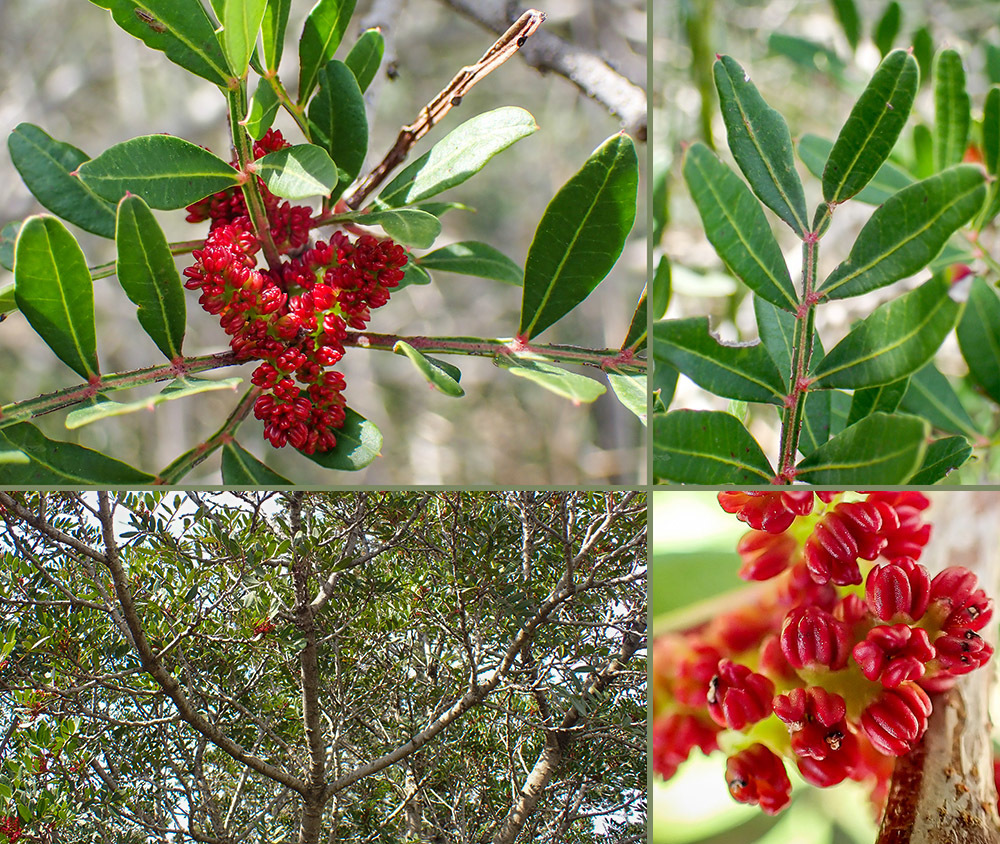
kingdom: Plantae
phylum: Tracheophyta
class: Magnoliopsida
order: Sapindales
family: Anacardiaceae
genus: Pistacia
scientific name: Pistacia lentiscus
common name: Lentisk
